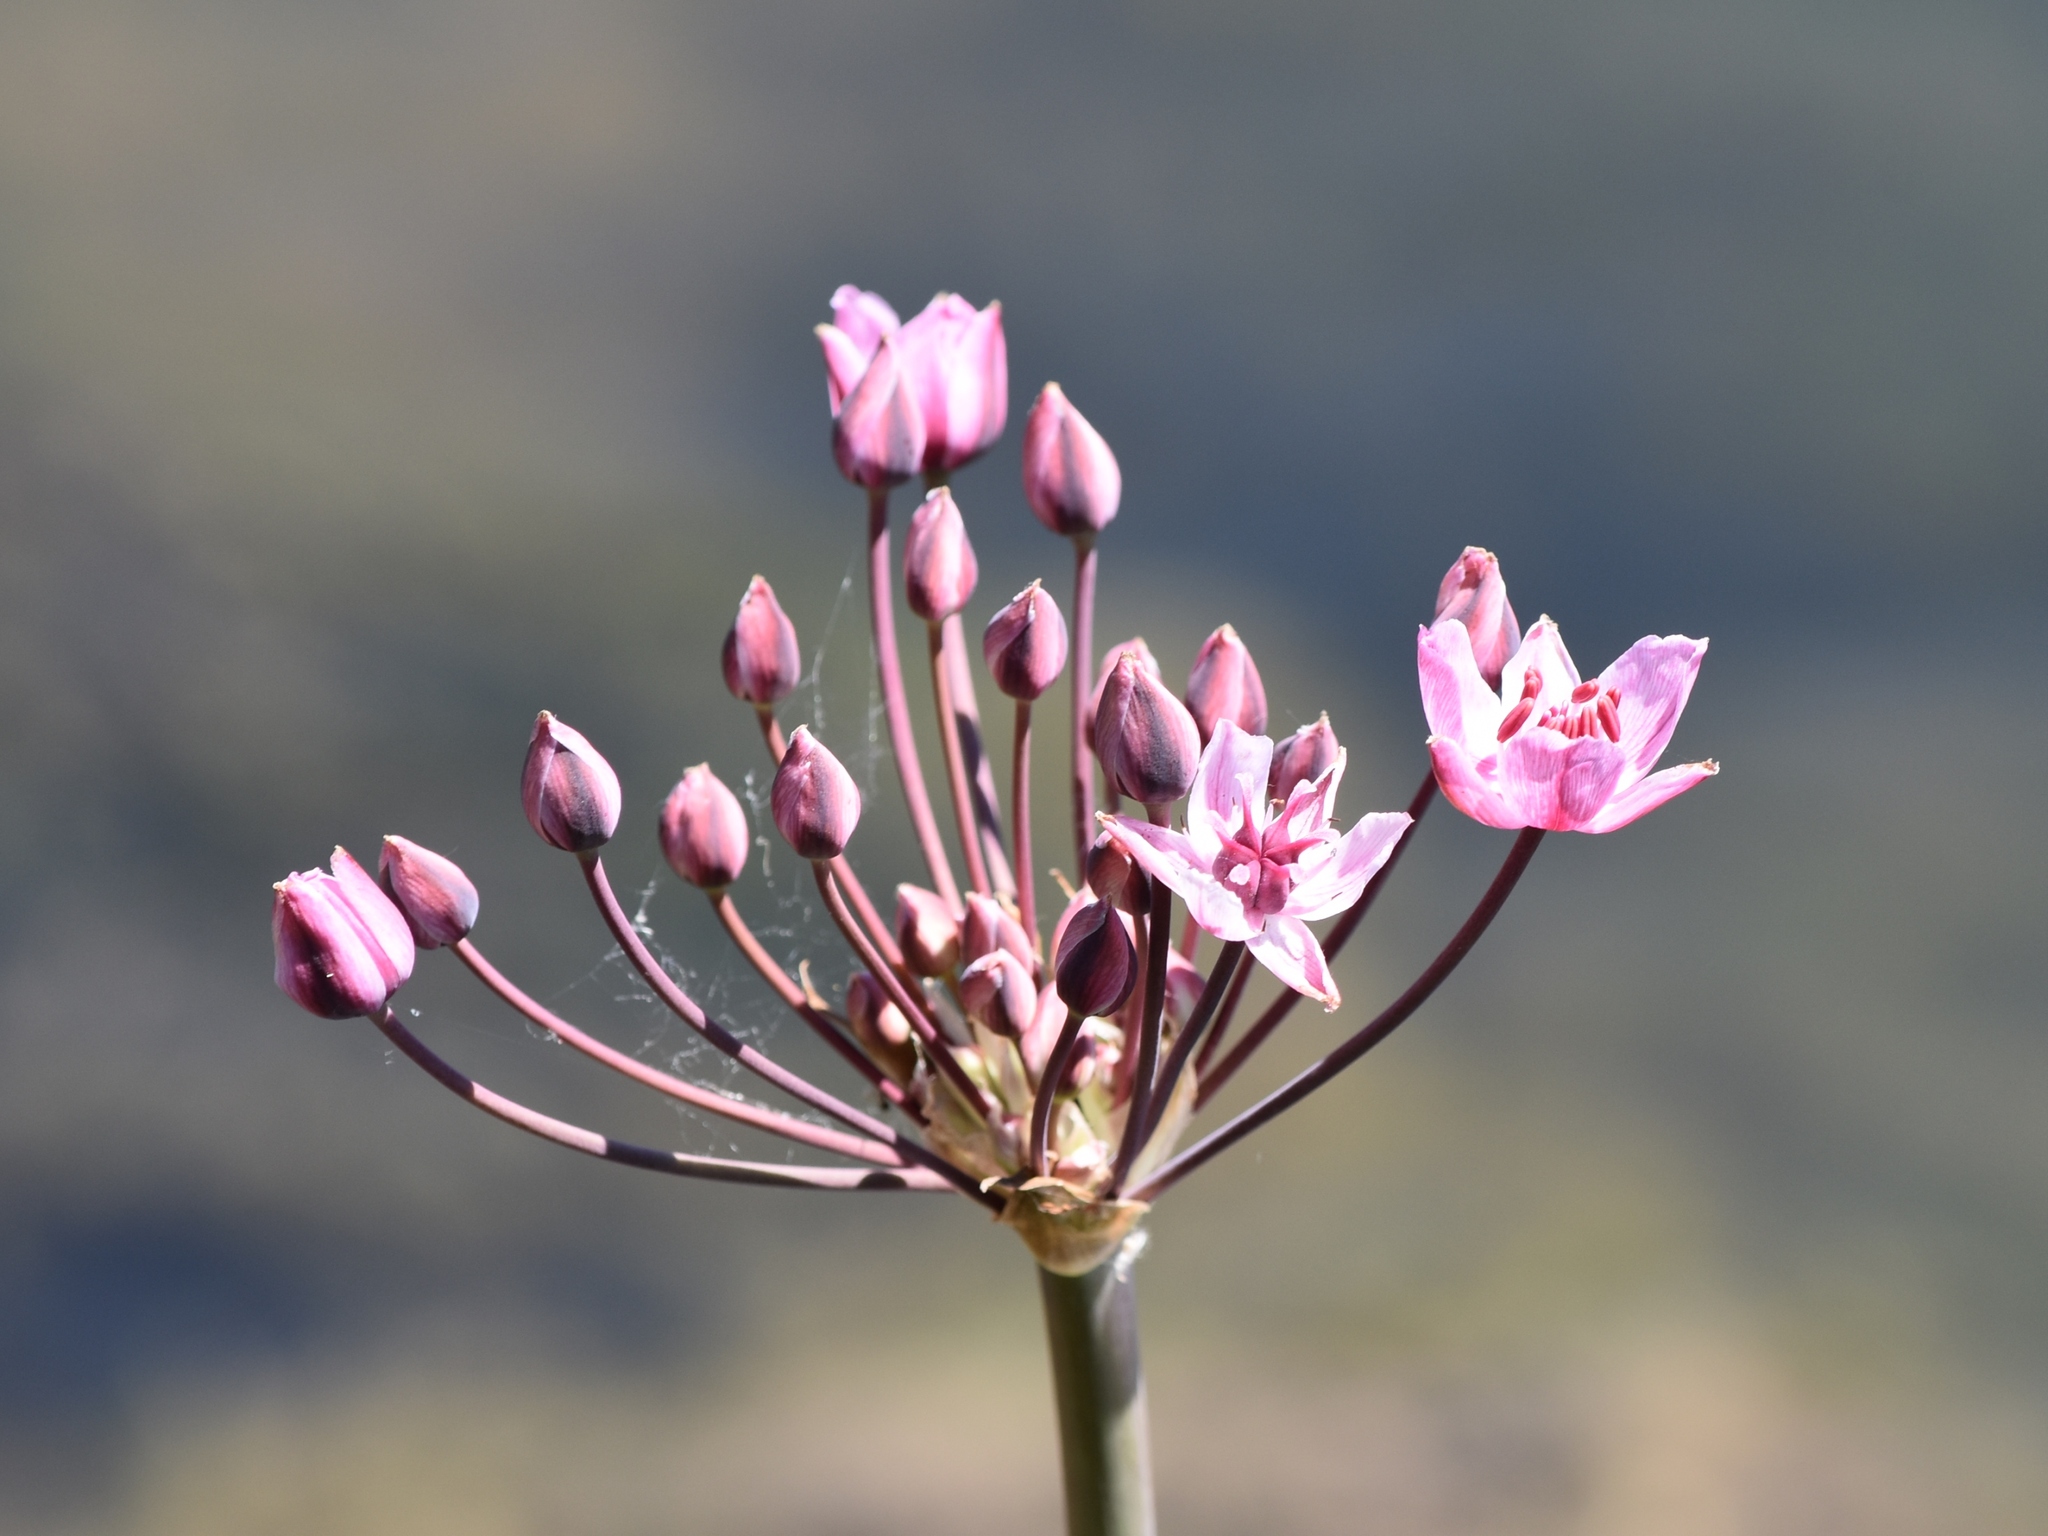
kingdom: Plantae
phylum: Tracheophyta
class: Liliopsida
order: Alismatales
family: Butomaceae
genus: Butomus
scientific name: Butomus umbellatus
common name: Flowering-rush
